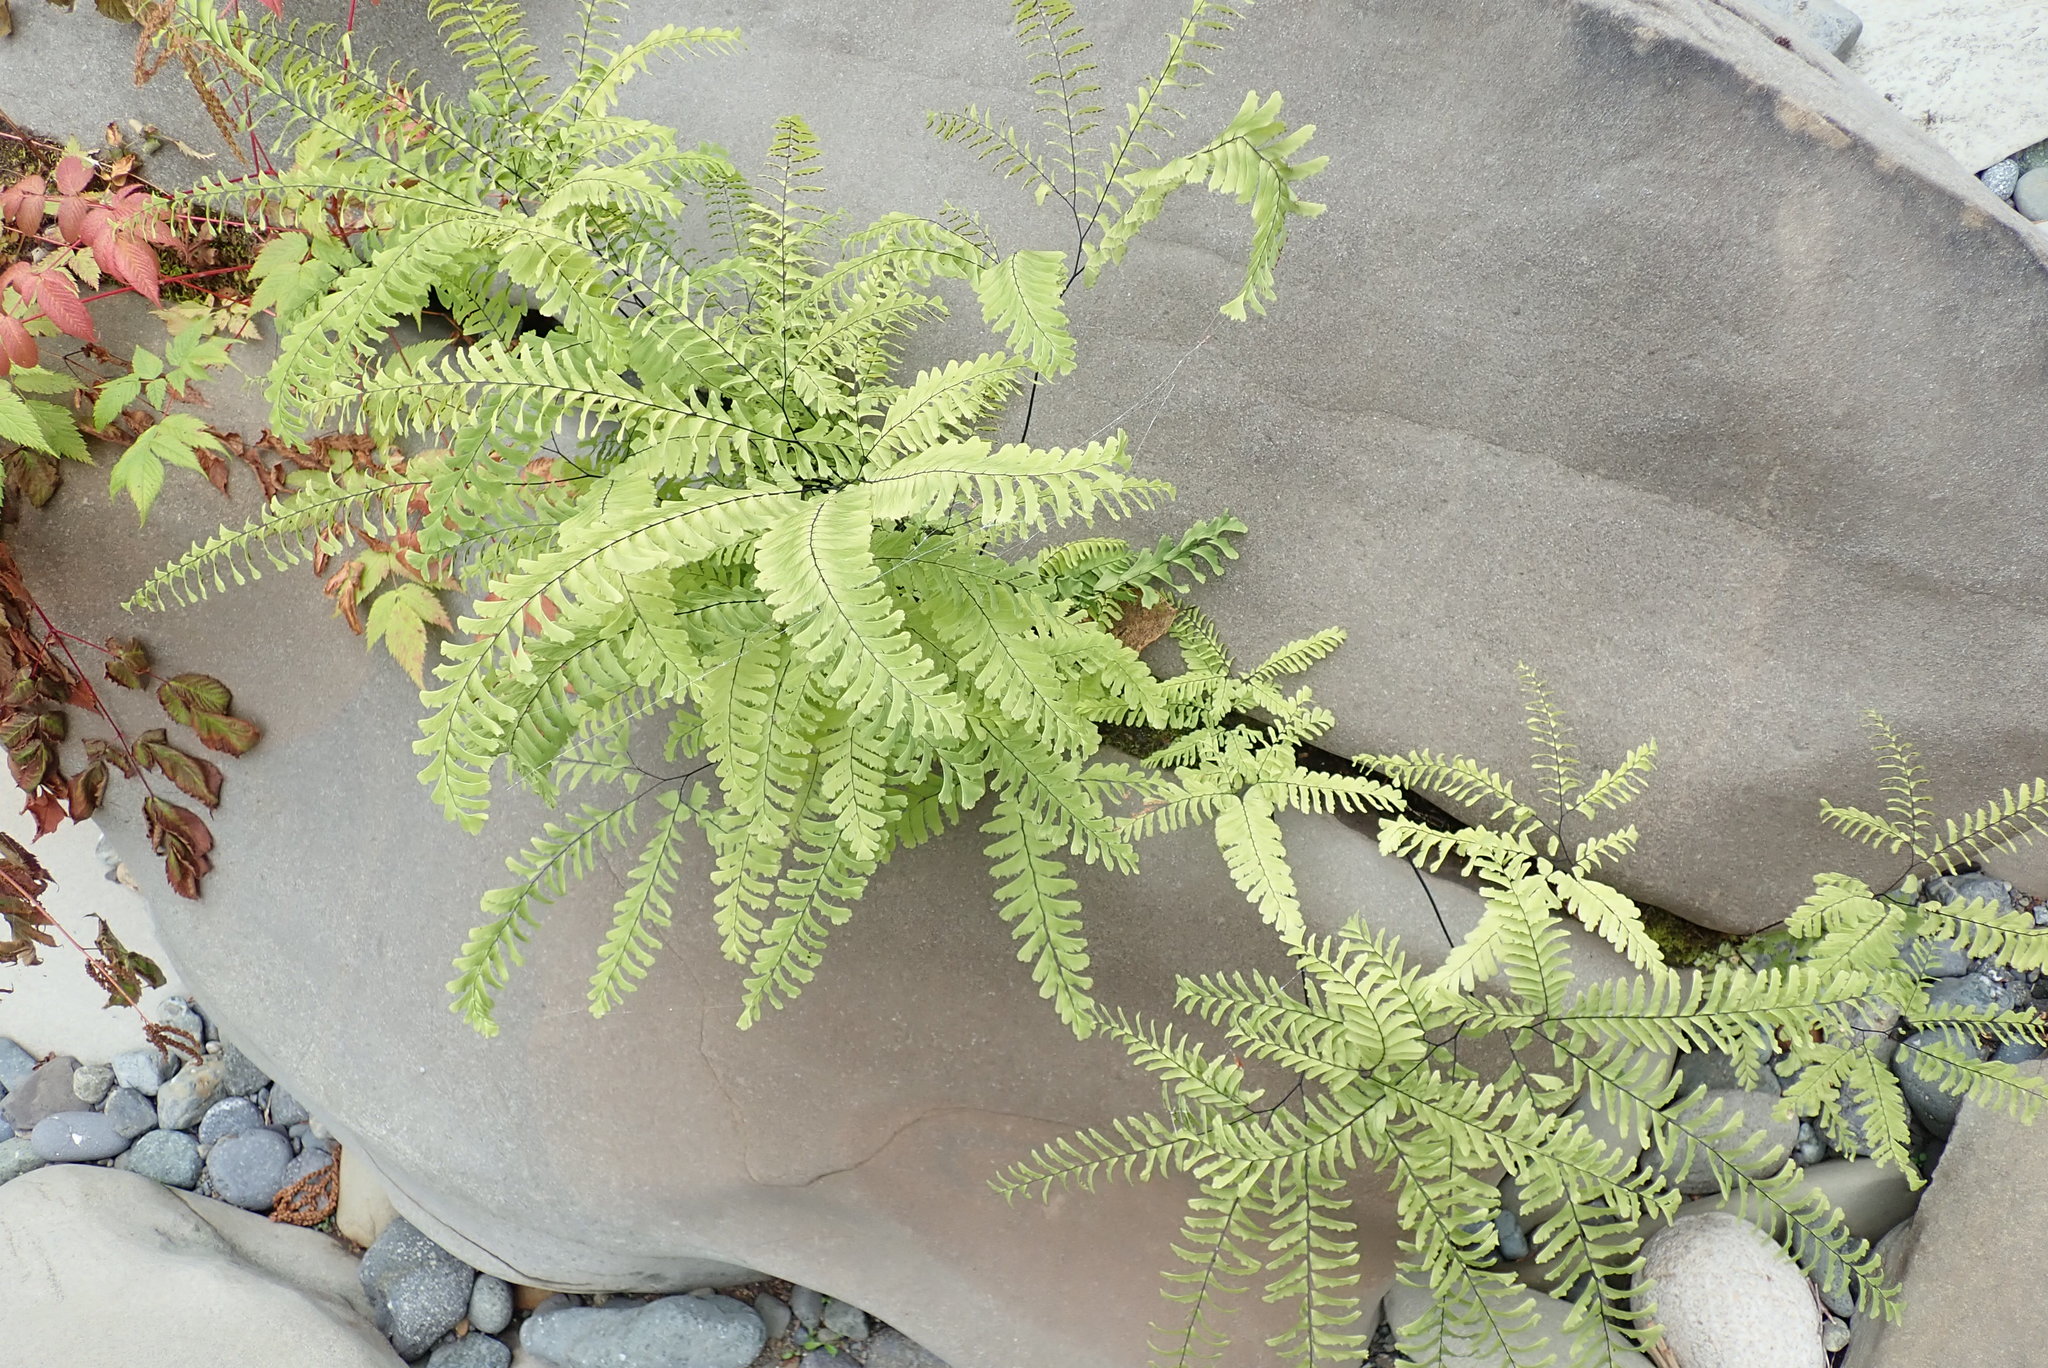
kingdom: Plantae
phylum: Tracheophyta
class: Polypodiopsida
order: Polypodiales
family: Pteridaceae
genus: Adiantum
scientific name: Adiantum aleuticum
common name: Aleutian maidenhair fern
